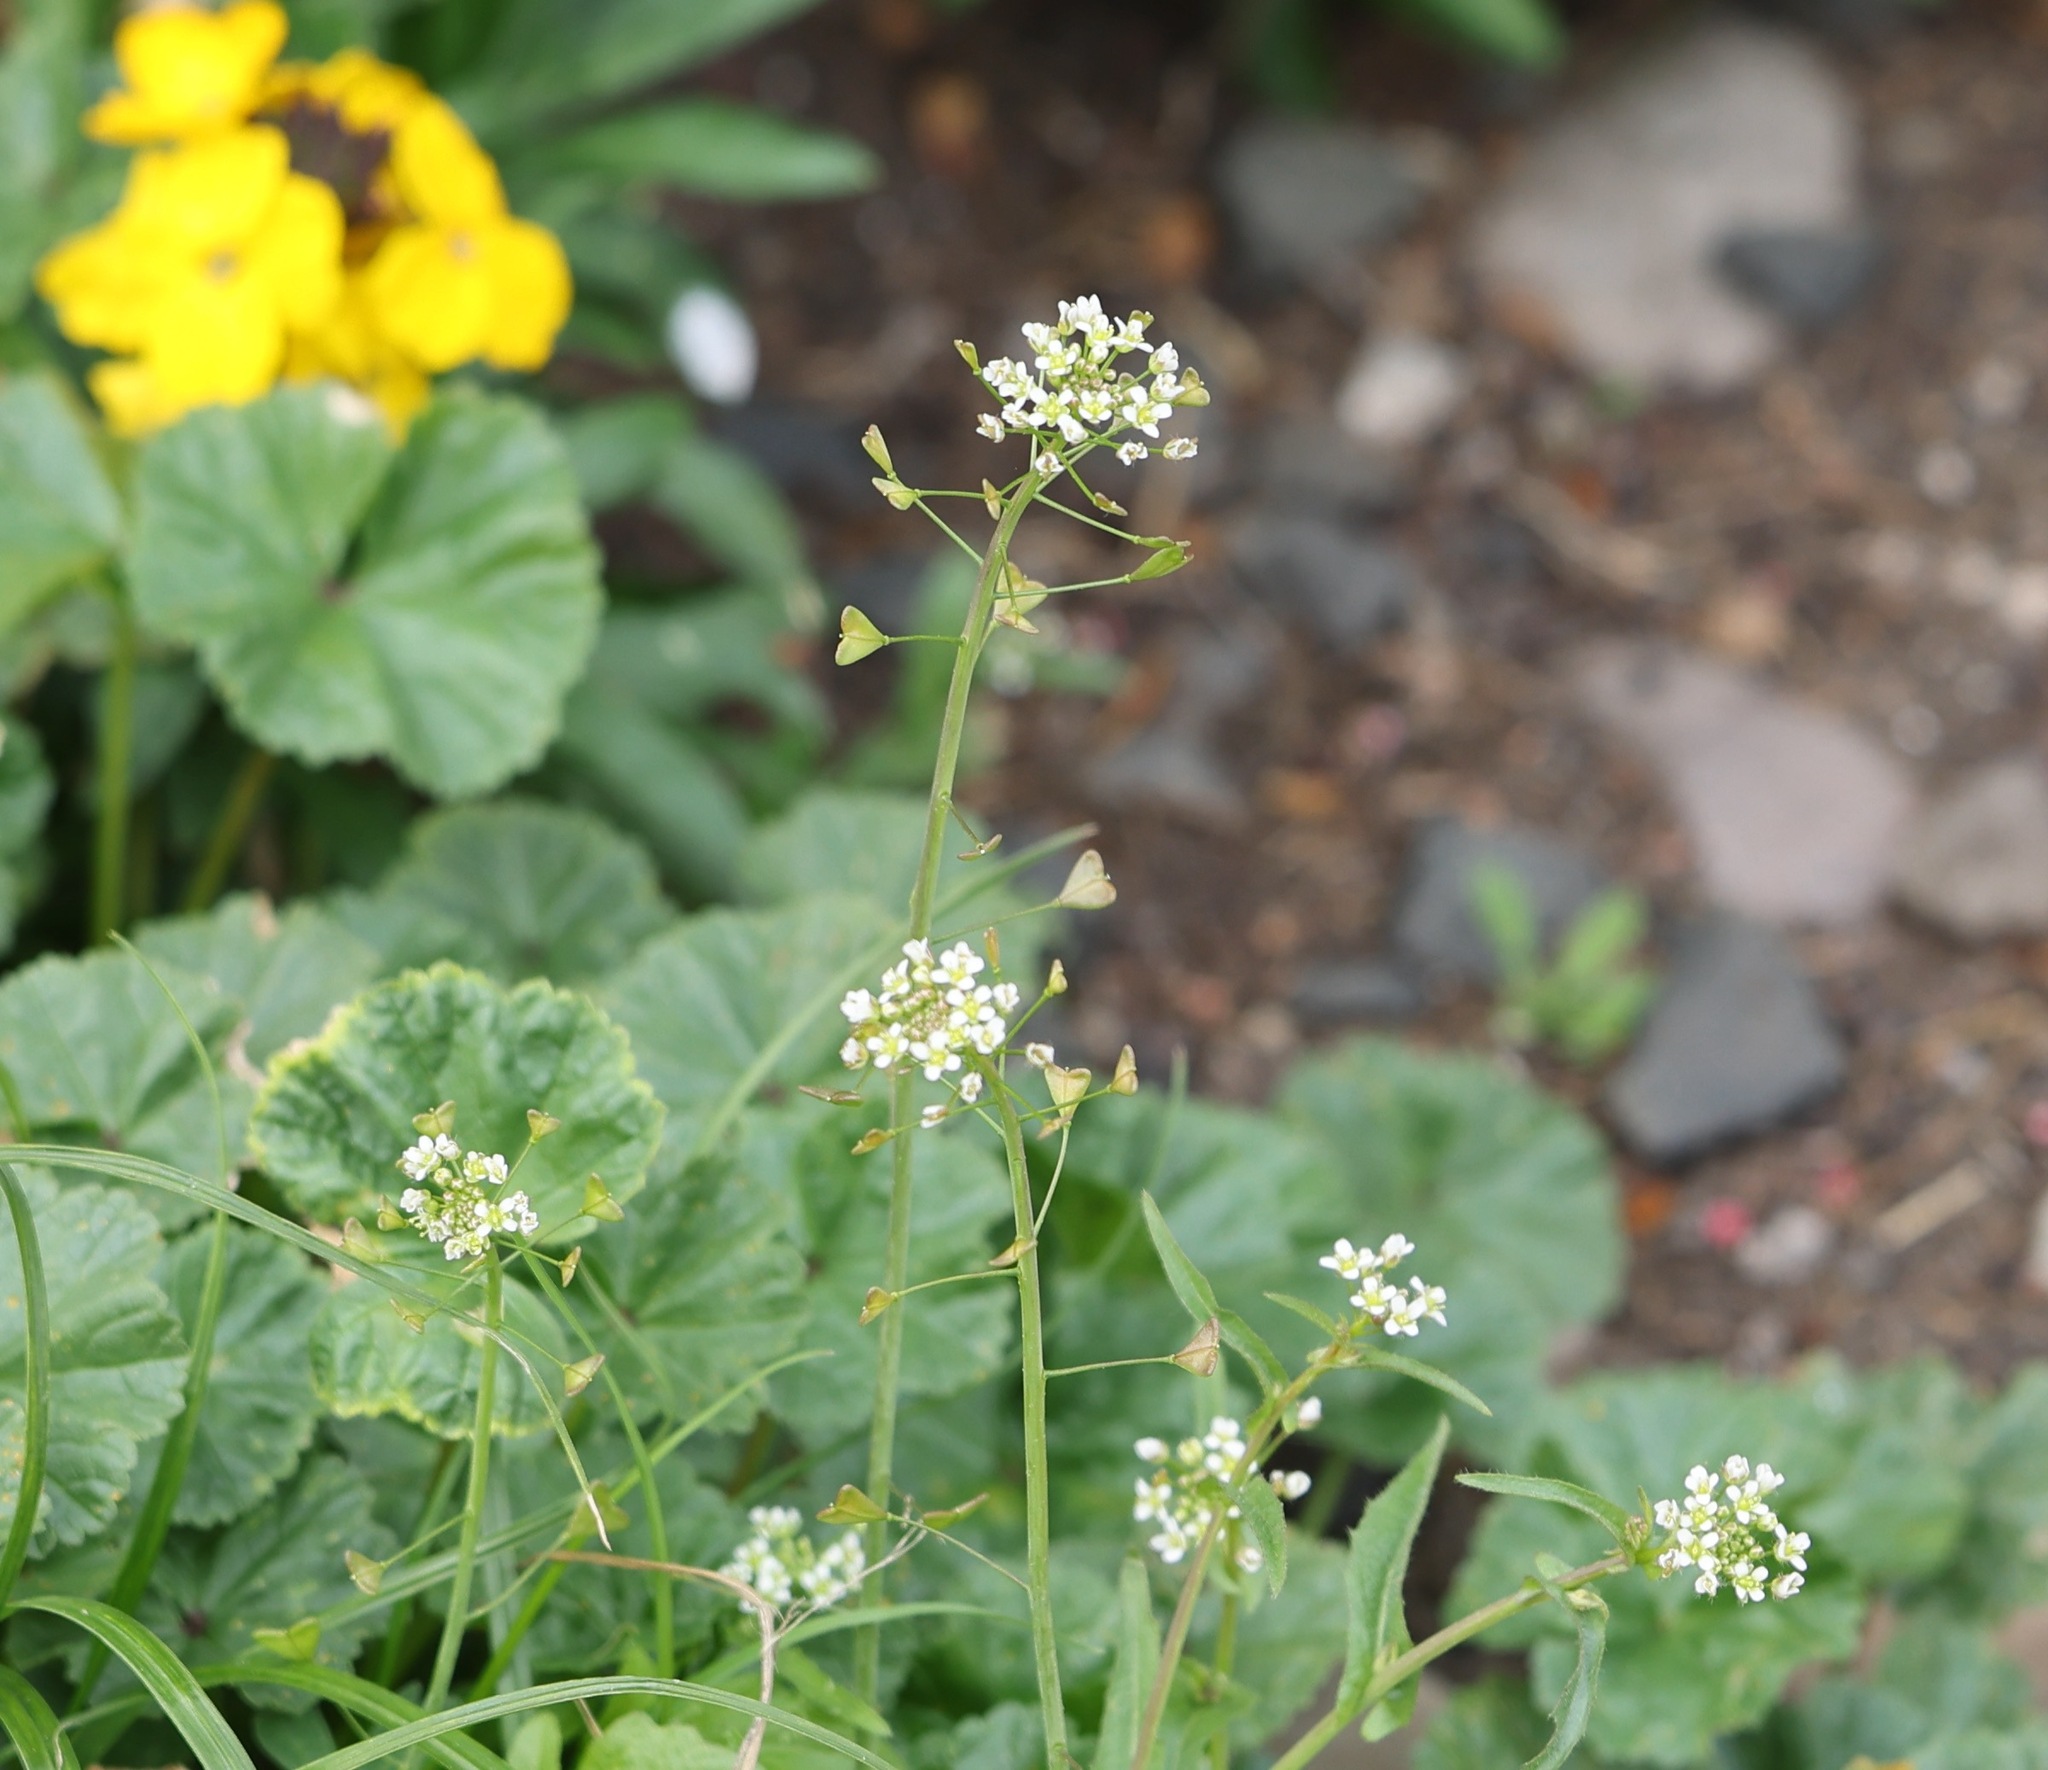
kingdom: Plantae
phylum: Tracheophyta
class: Magnoliopsida
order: Brassicales
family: Brassicaceae
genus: Capsella
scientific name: Capsella bursa-pastoris
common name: Shepherd's purse
